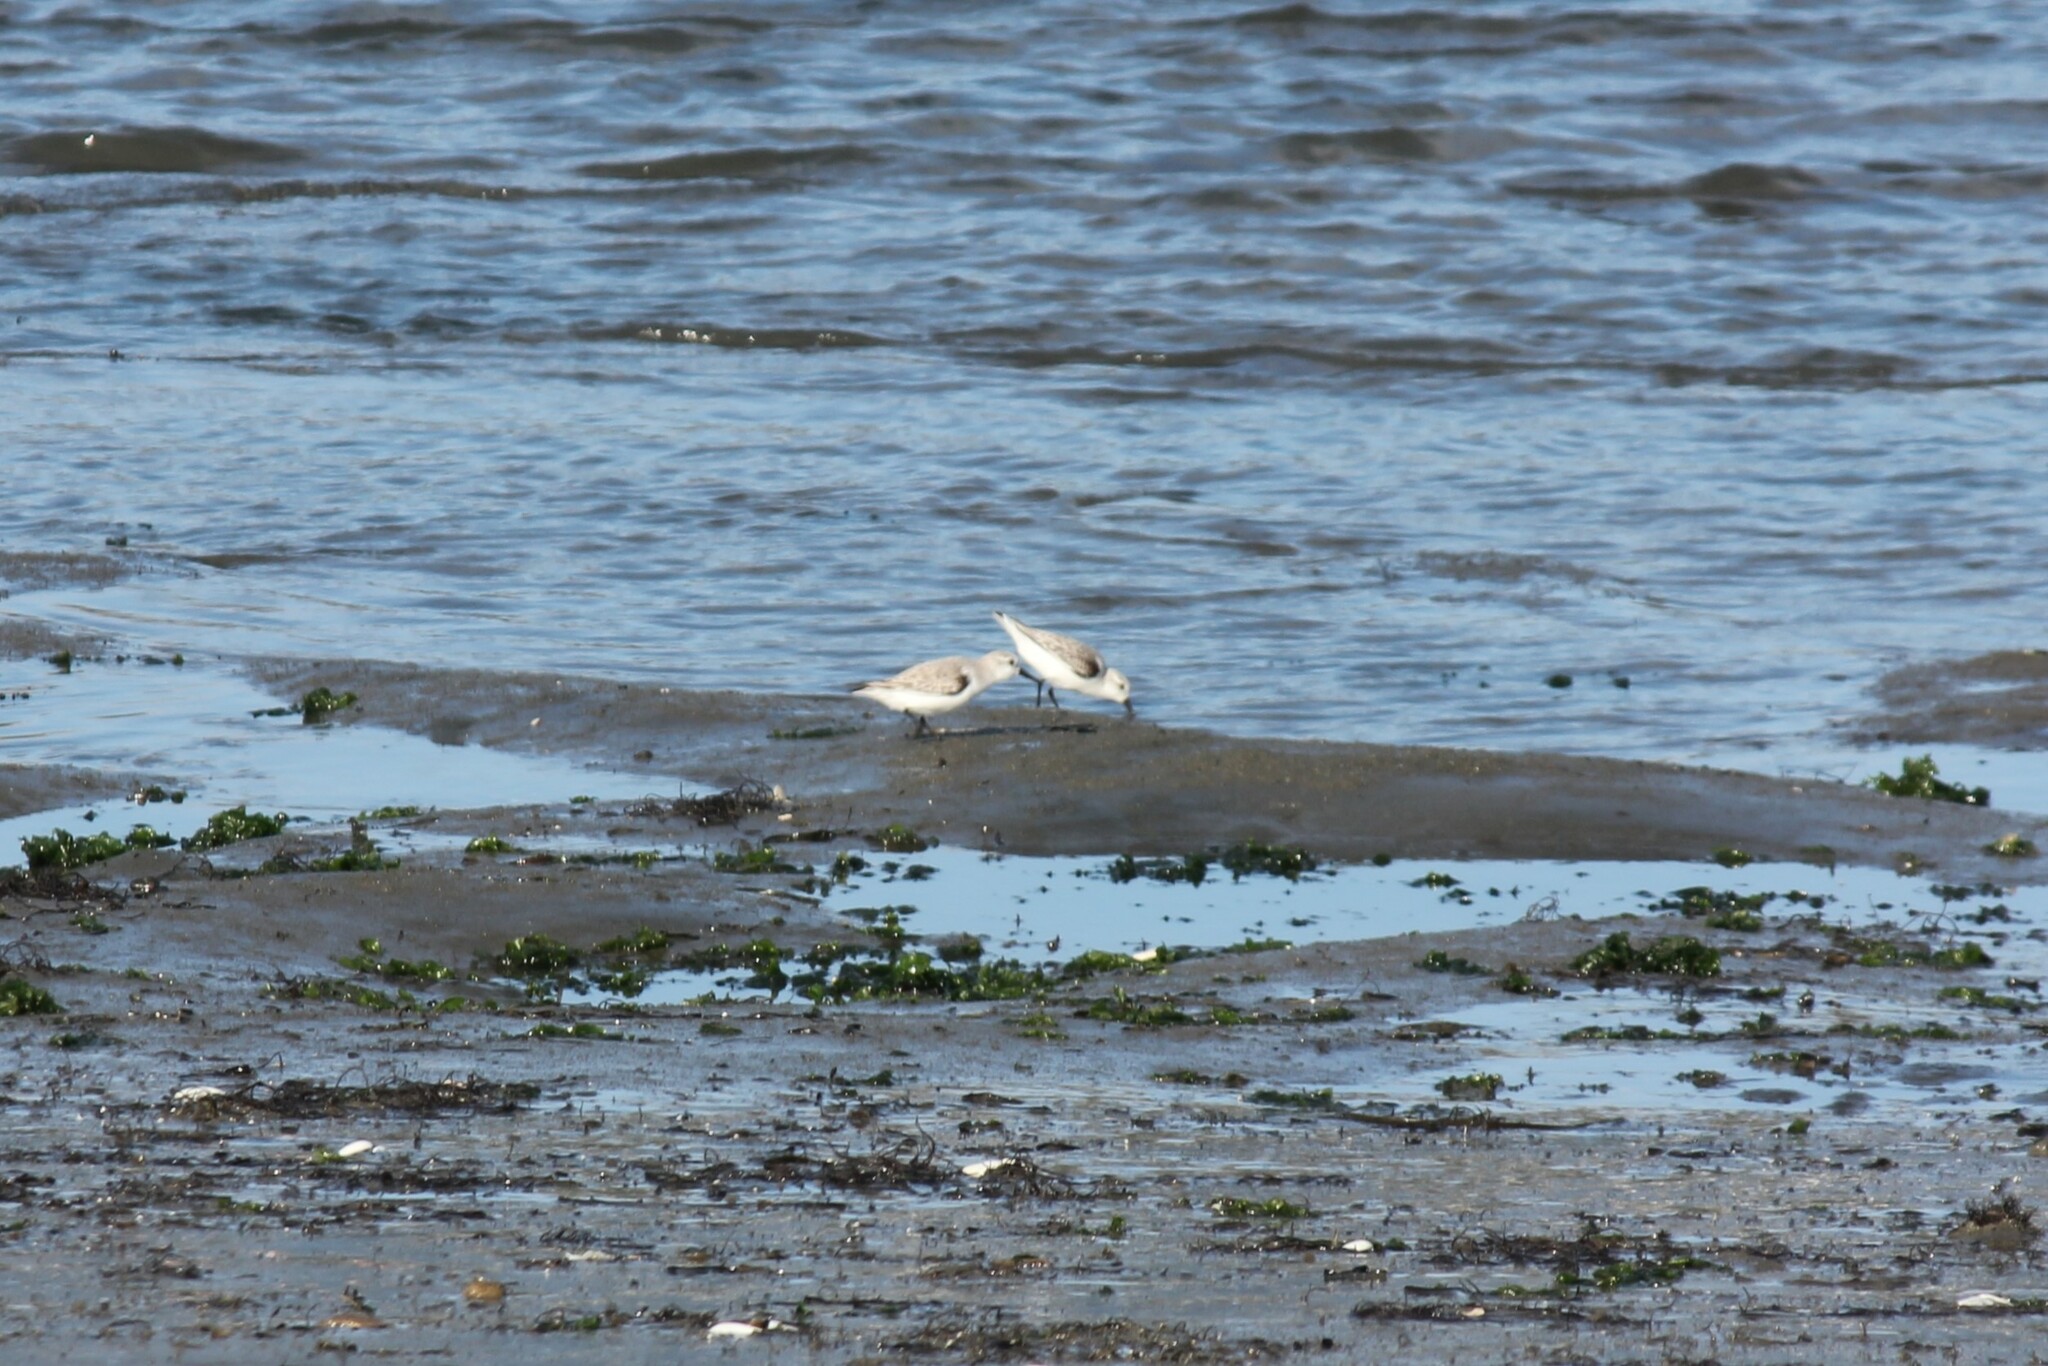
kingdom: Animalia
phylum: Chordata
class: Aves
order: Charadriiformes
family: Scolopacidae
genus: Calidris
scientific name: Calidris alba
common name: Sanderling
